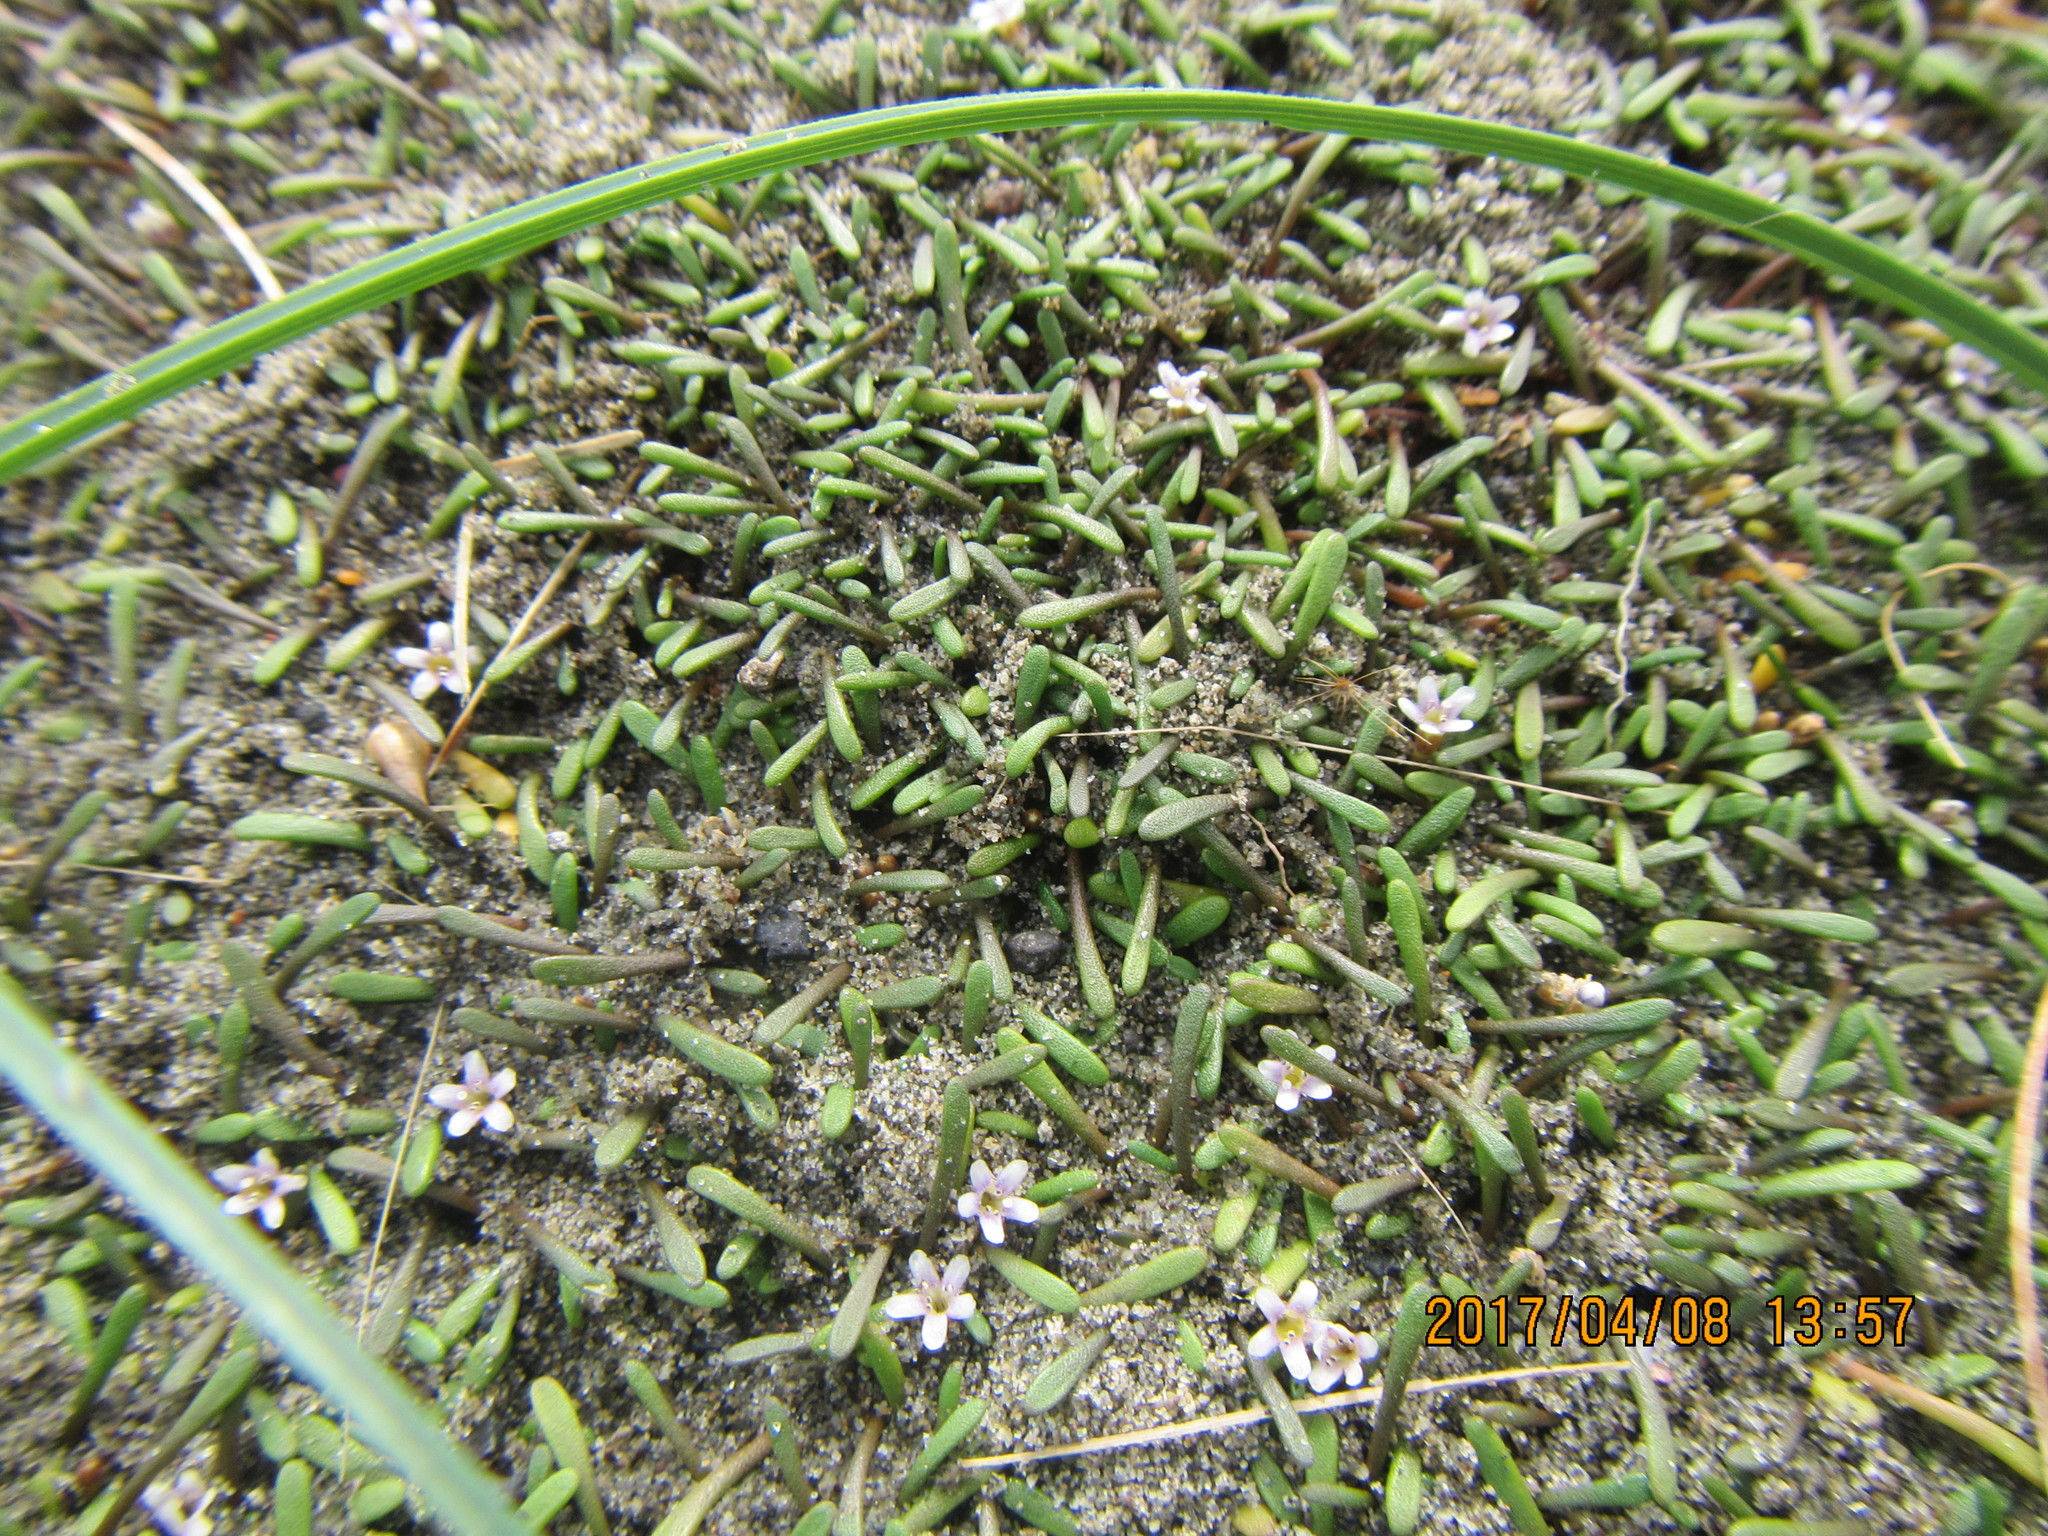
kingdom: Plantae
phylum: Tracheophyta
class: Magnoliopsida
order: Lamiales
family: Scrophulariaceae
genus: Limosella
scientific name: Limosella australis
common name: Welsh mudwort
